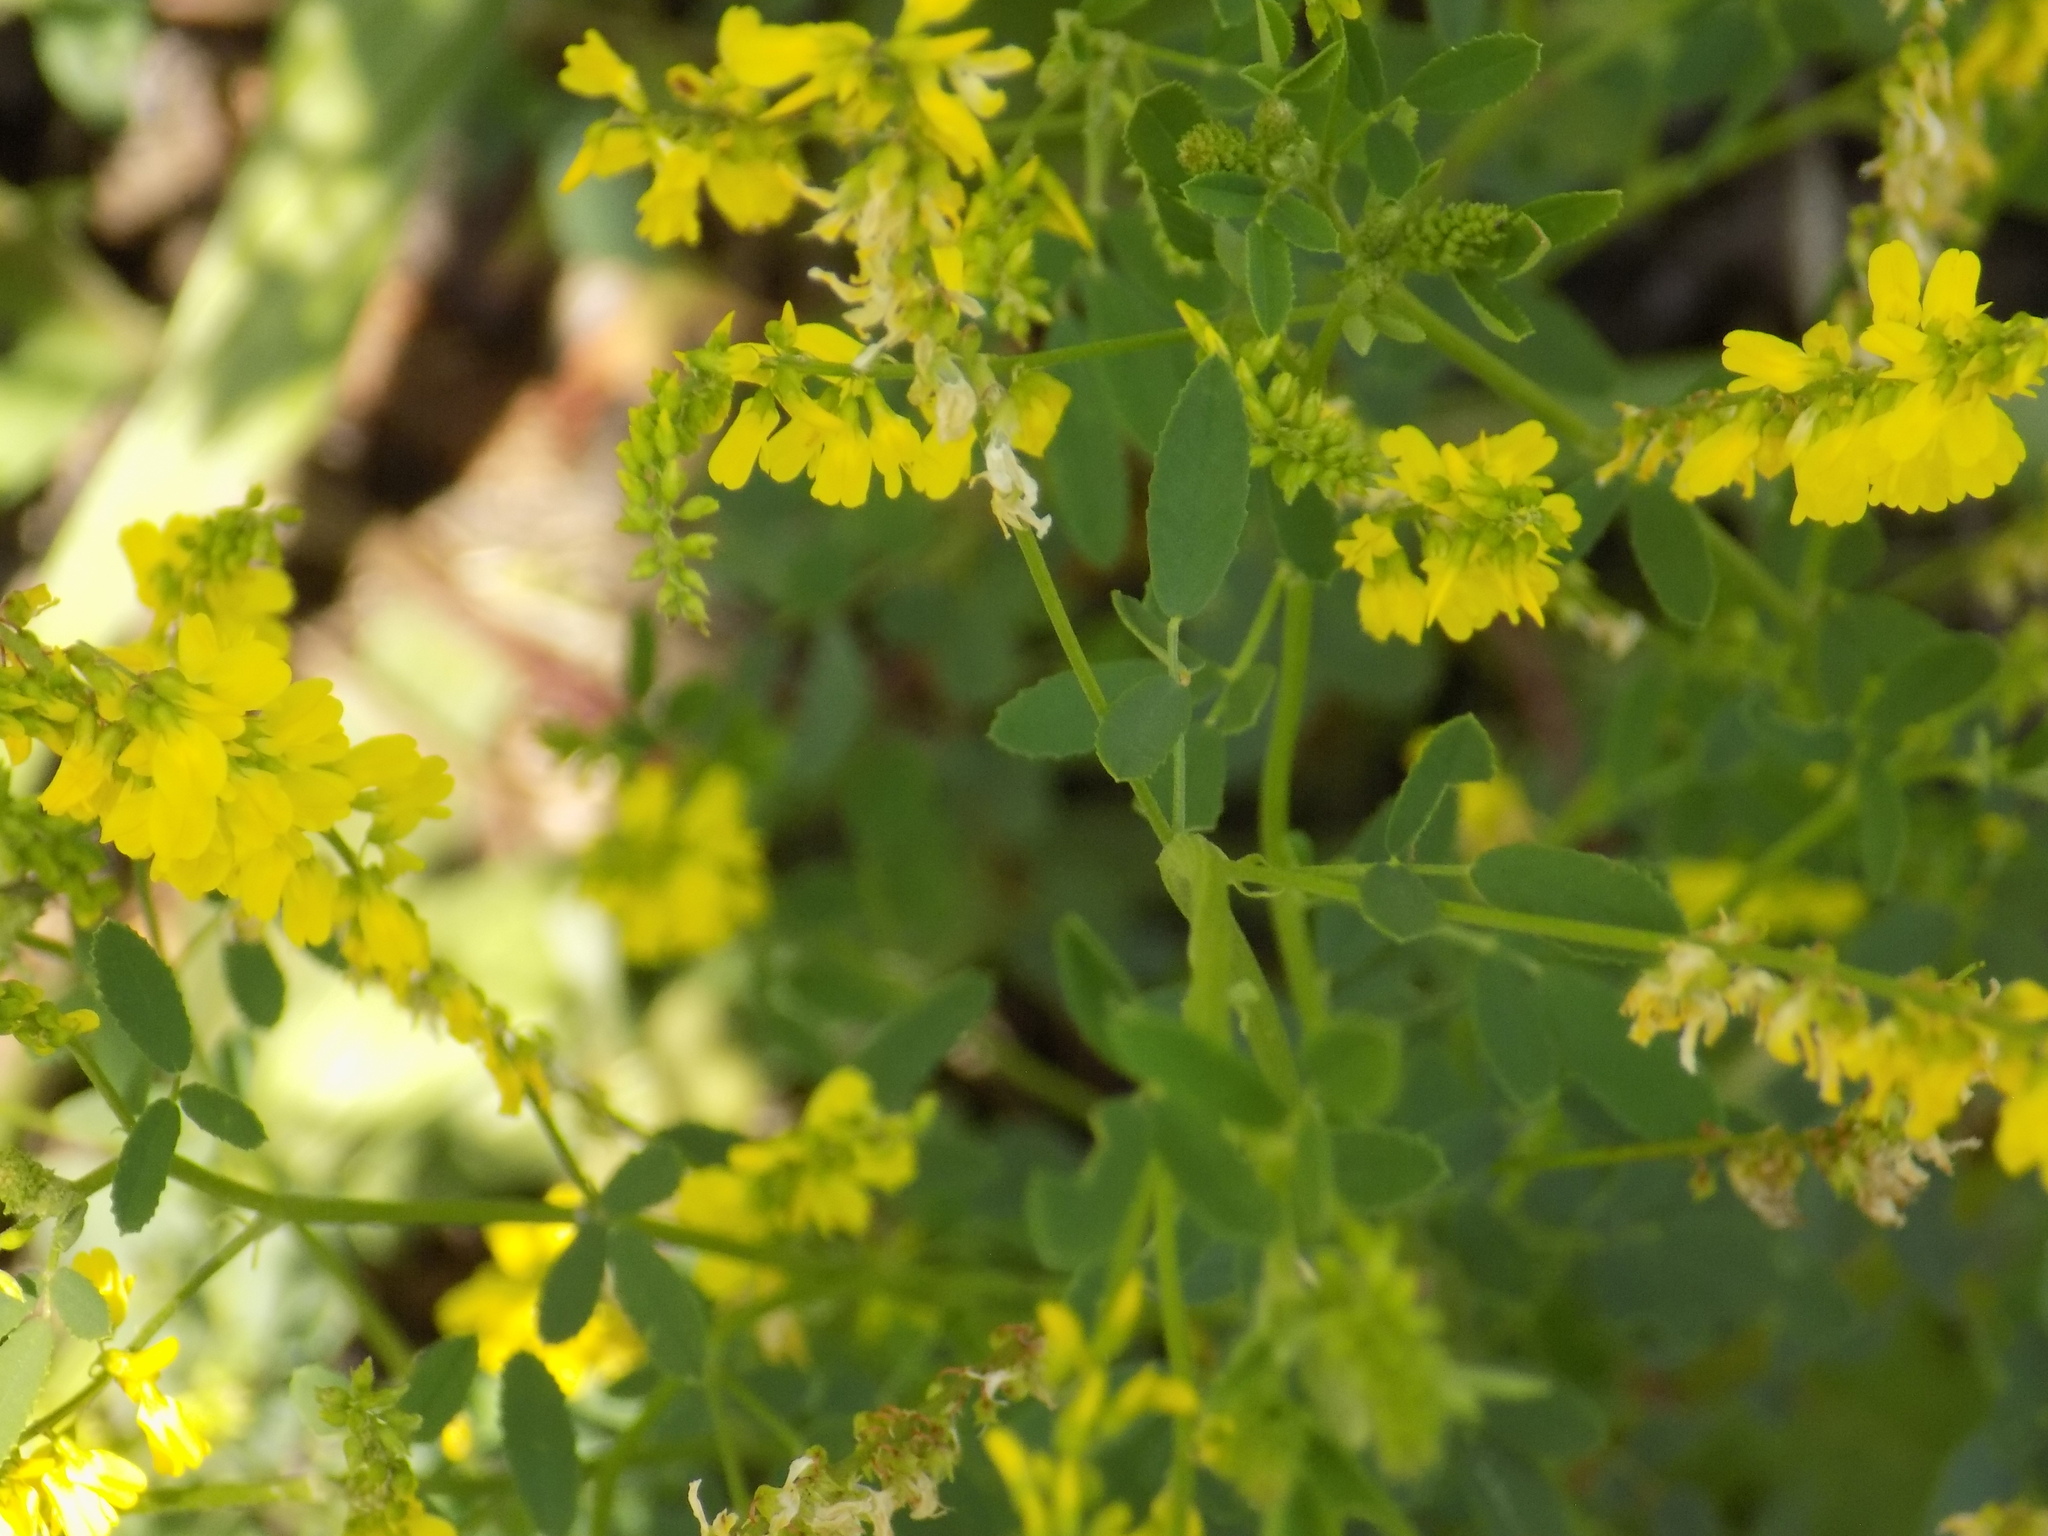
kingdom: Plantae
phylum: Tracheophyta
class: Magnoliopsida
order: Fabales
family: Fabaceae
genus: Melilotus
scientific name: Melilotus officinalis
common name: Sweetclover
